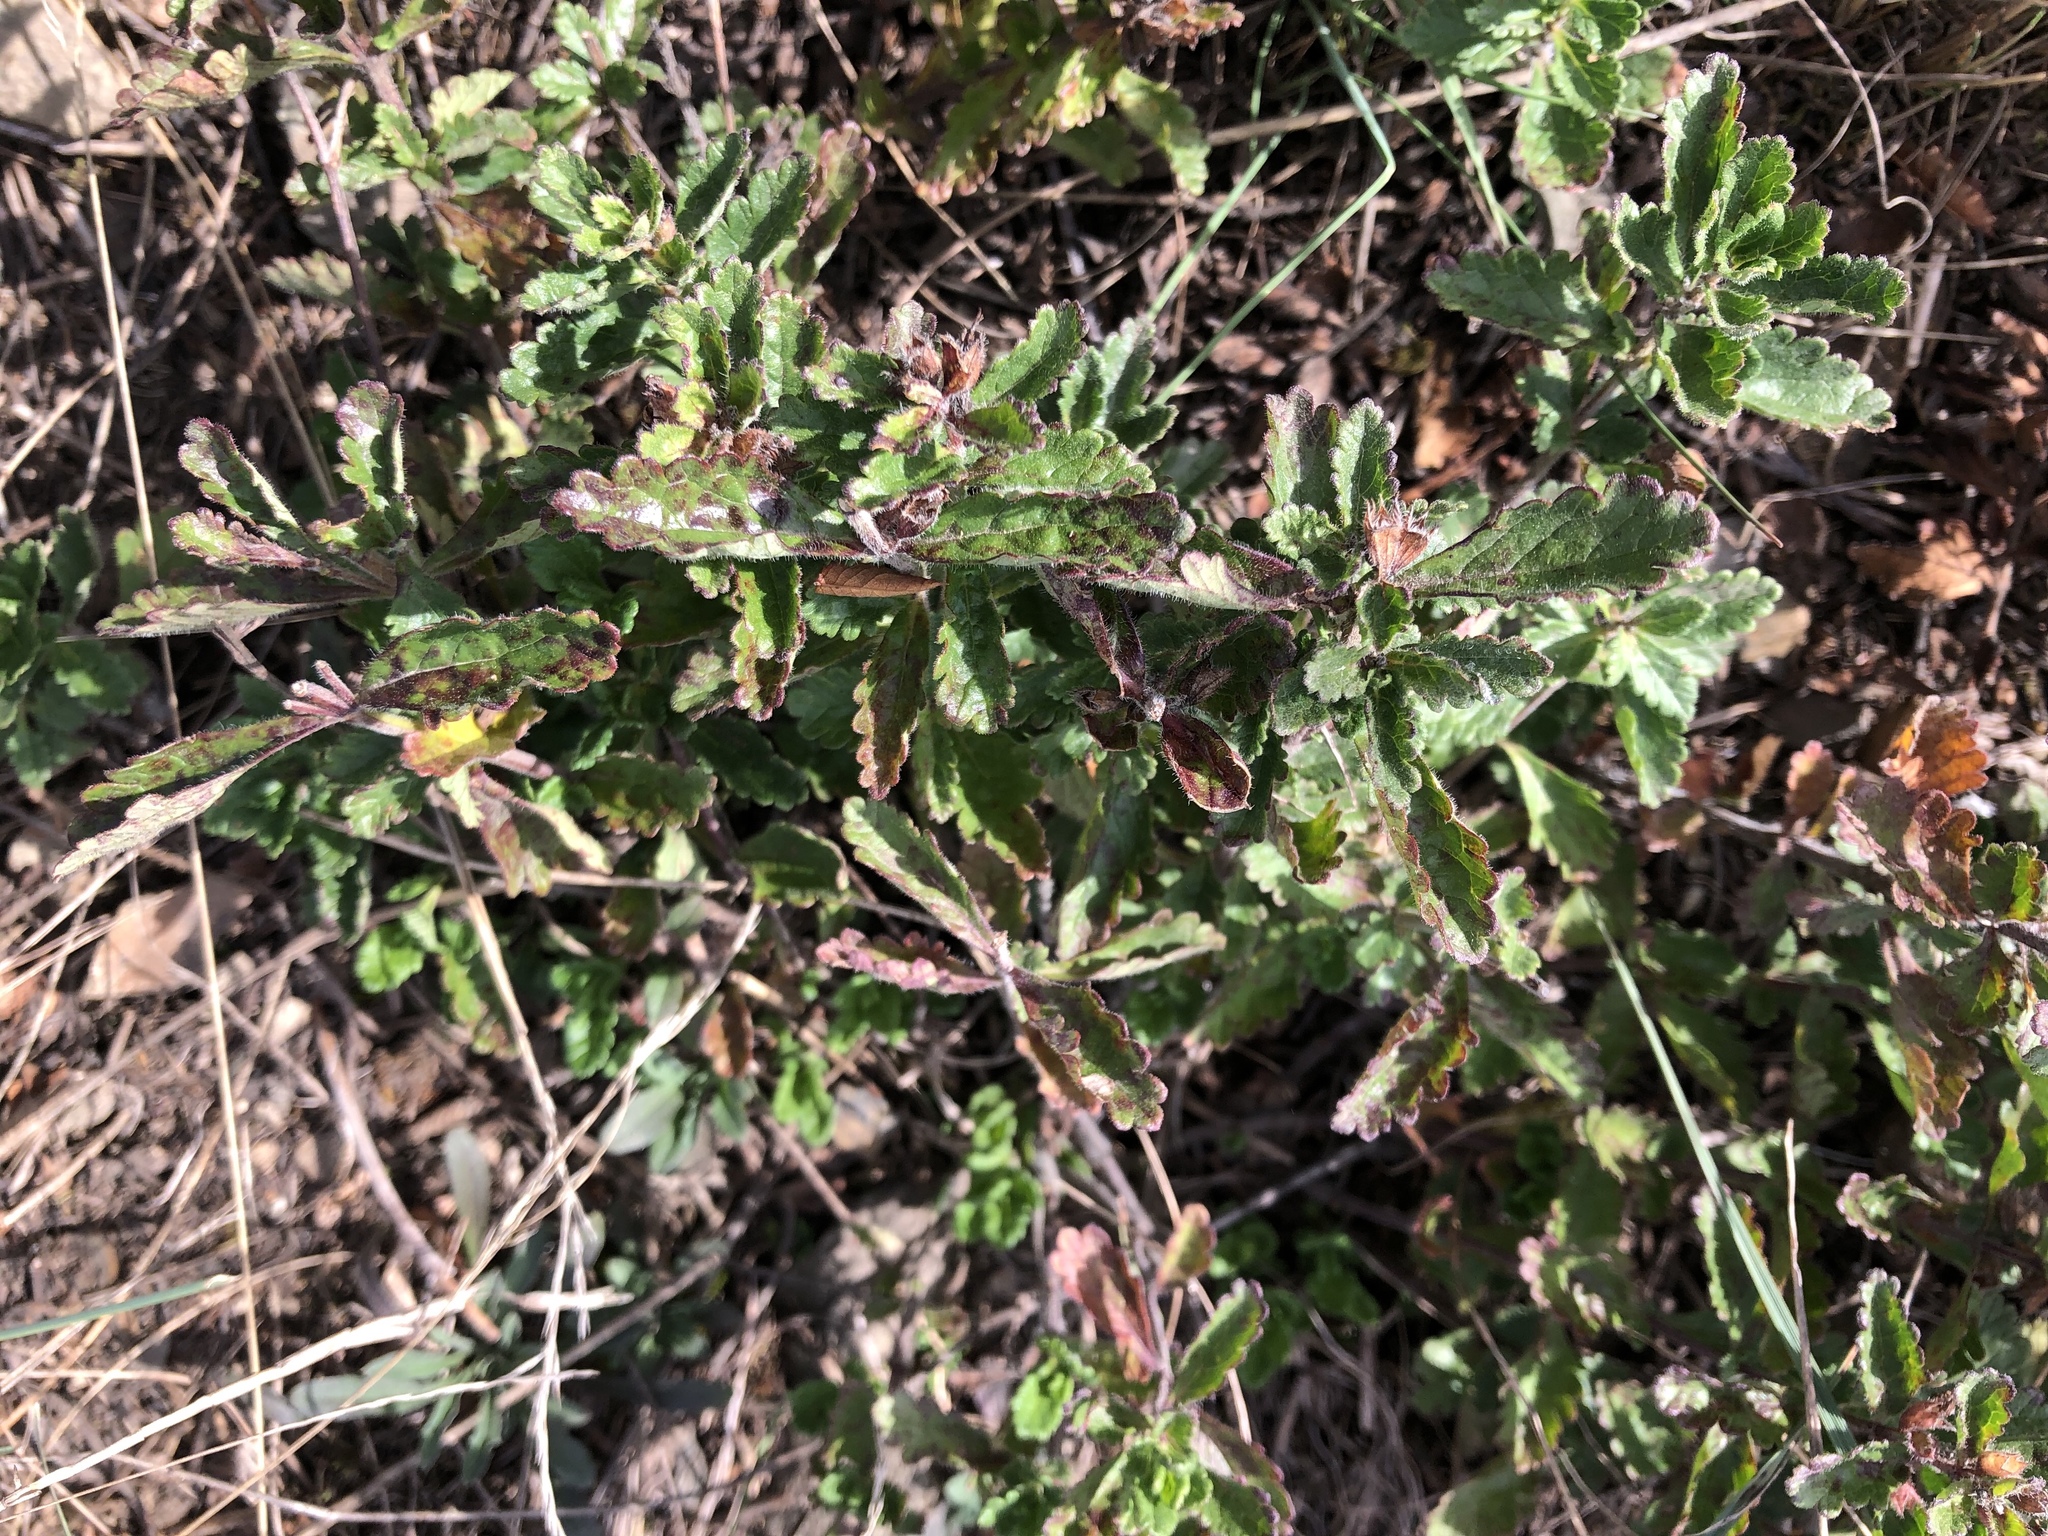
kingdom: Plantae
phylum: Tracheophyta
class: Magnoliopsida
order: Lamiales
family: Lamiaceae
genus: Teucrium
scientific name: Teucrium chamaedrys
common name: Wall germander
